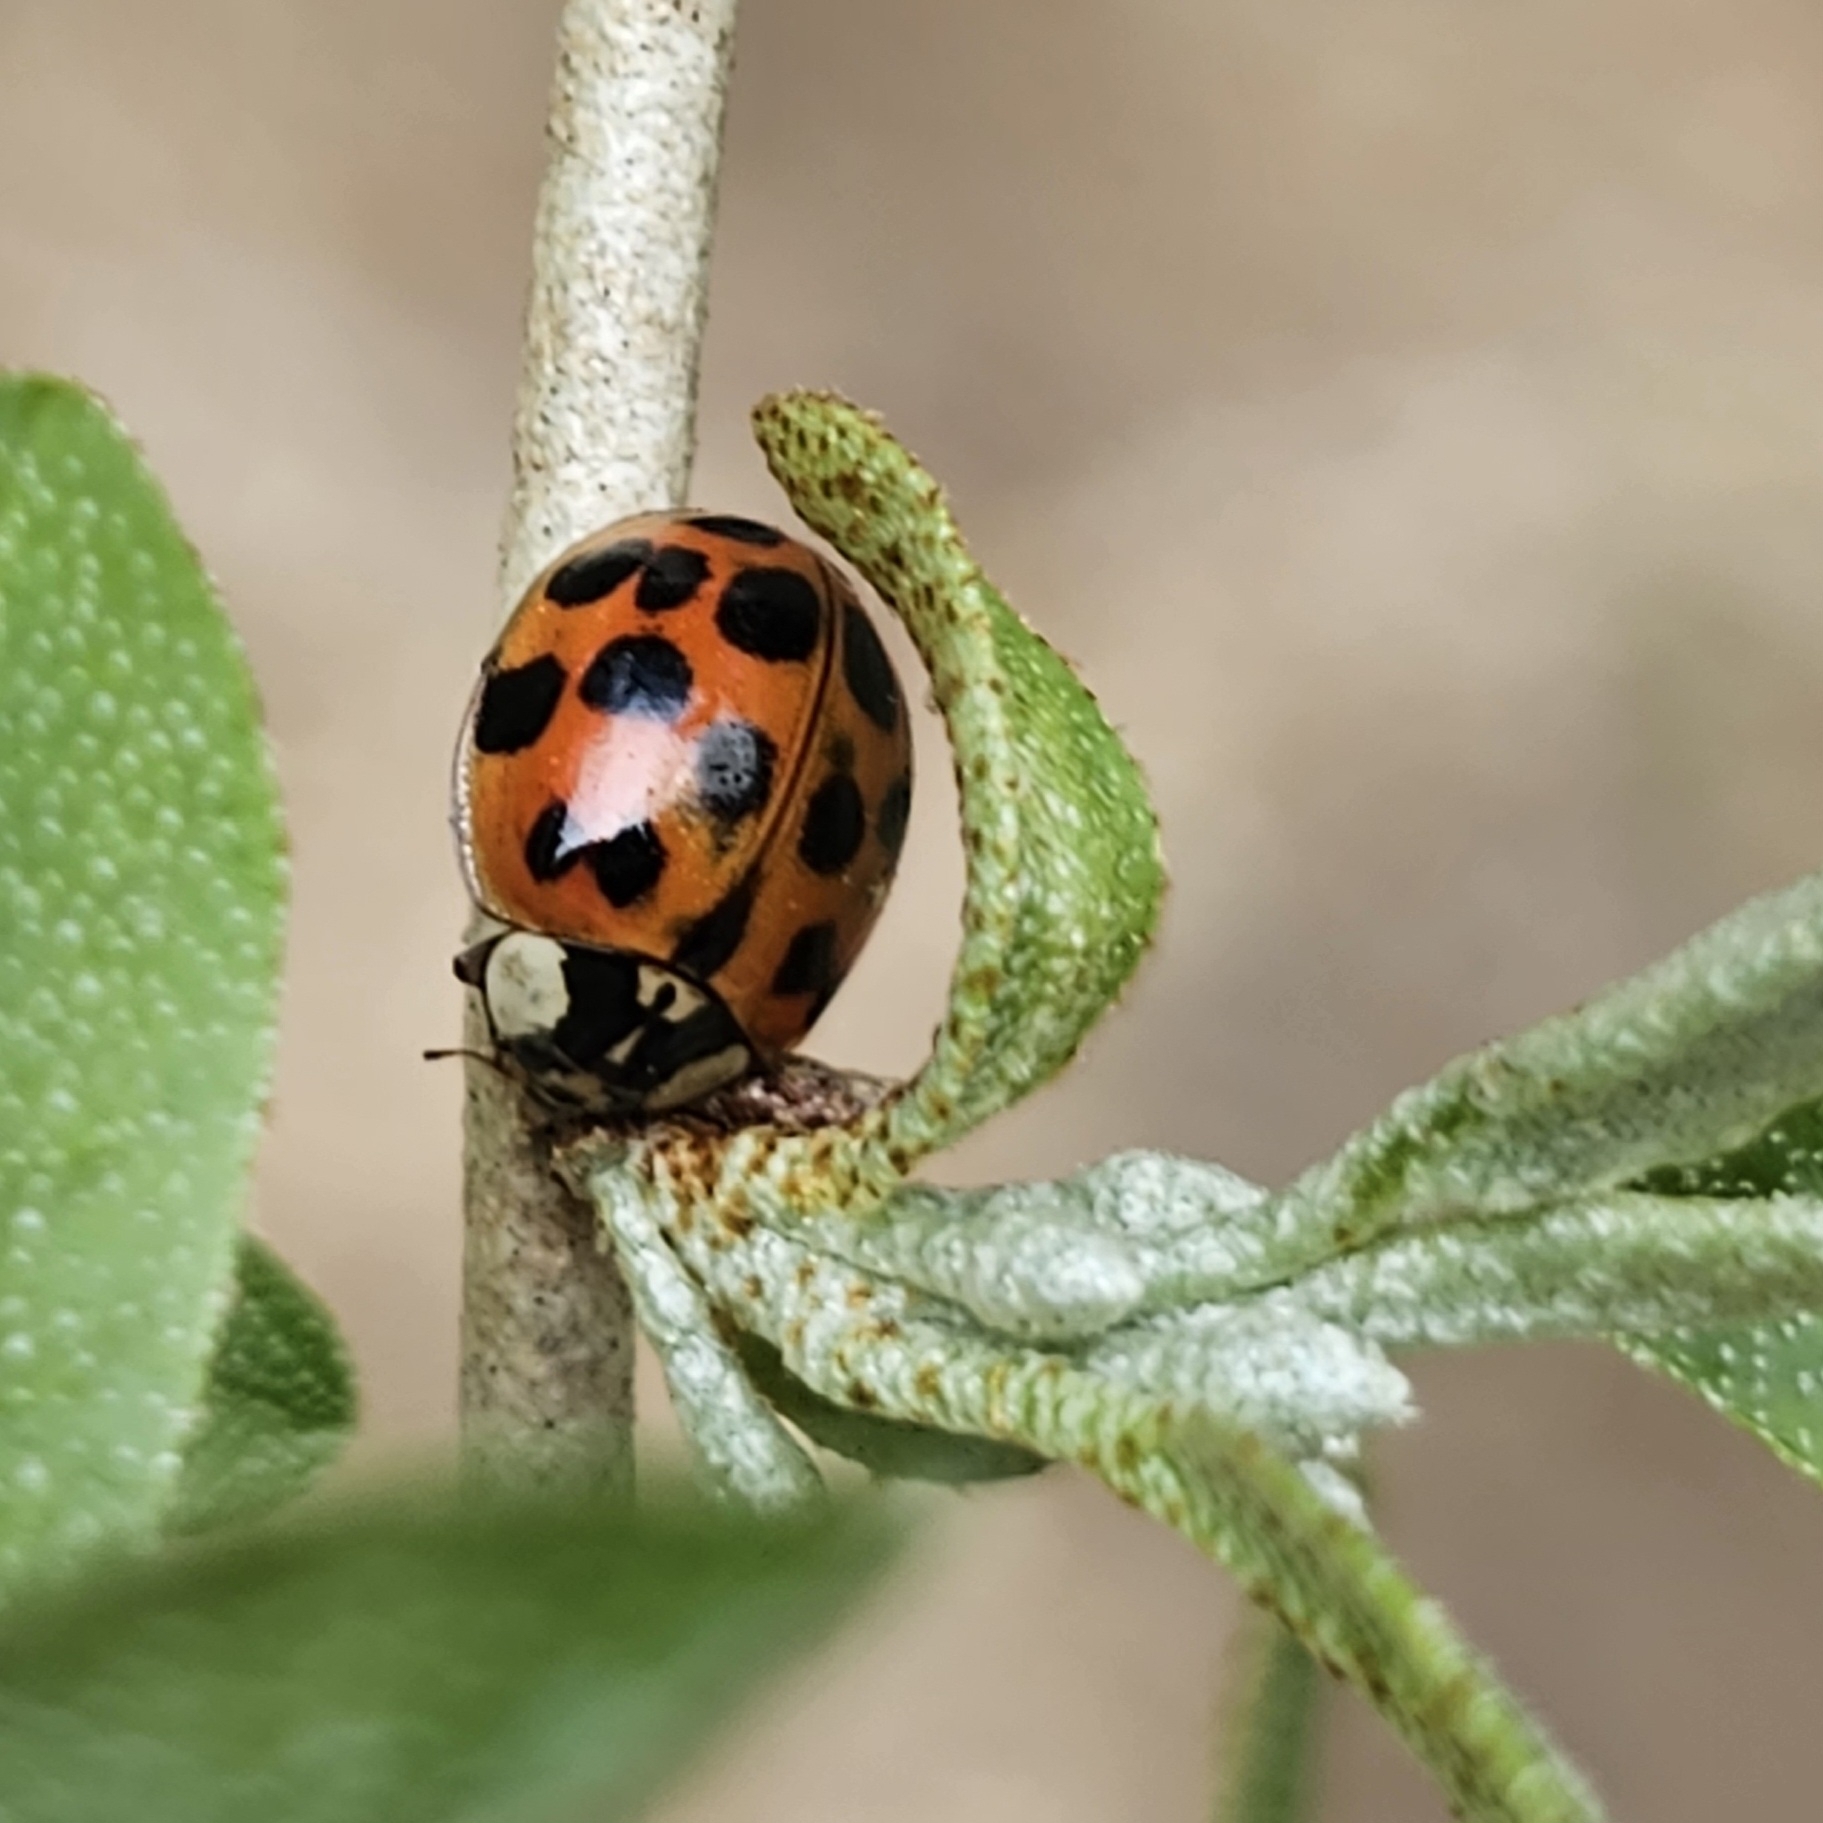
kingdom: Animalia
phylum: Arthropoda
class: Insecta
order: Coleoptera
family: Coccinellidae
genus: Harmonia
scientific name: Harmonia axyridis
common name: Harlequin ladybird
